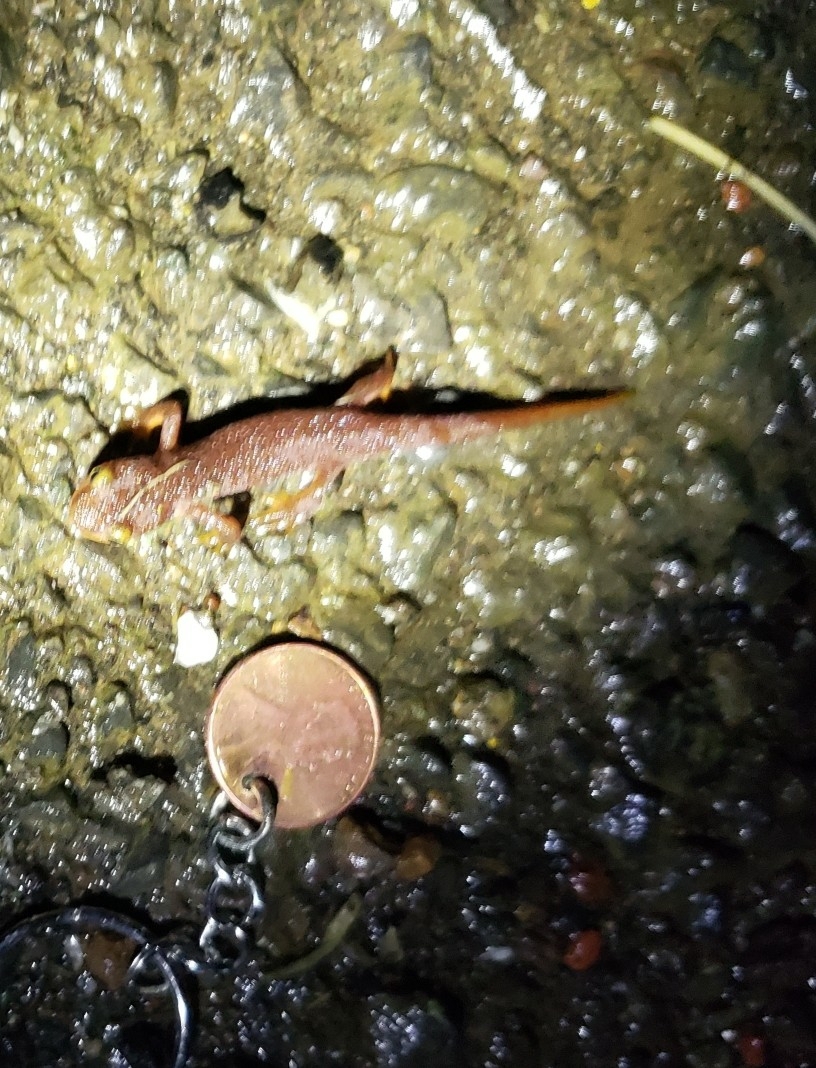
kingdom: Animalia
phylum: Chordata
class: Amphibia
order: Caudata
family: Salamandridae
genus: Taricha
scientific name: Taricha torosa
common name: California newt
